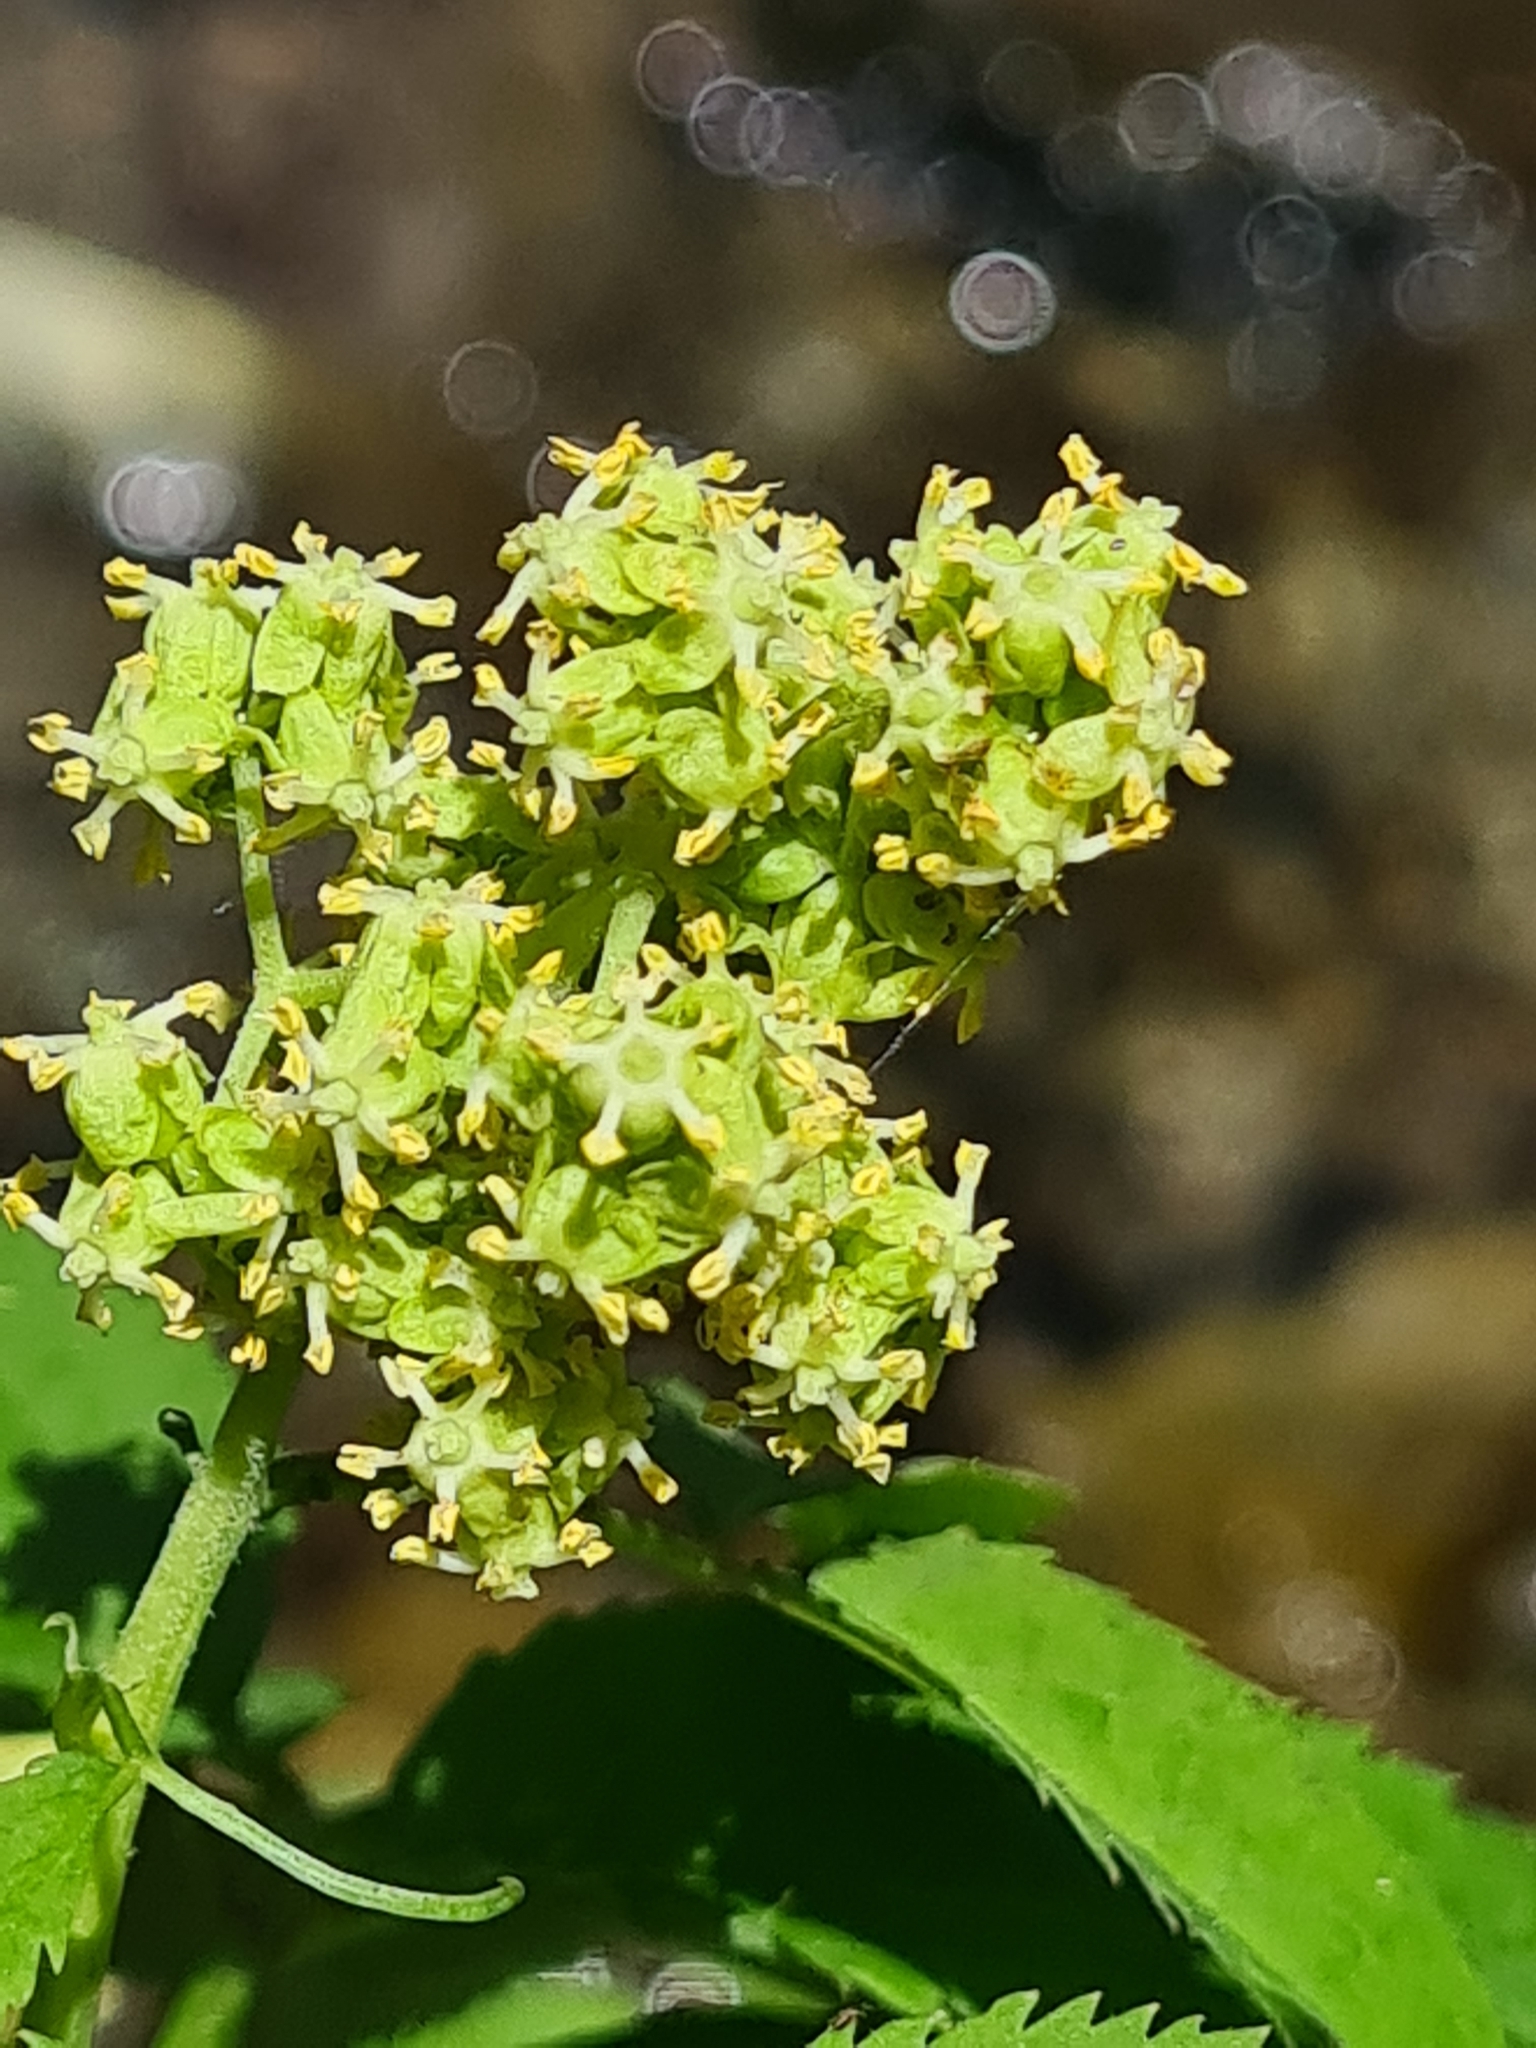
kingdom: Plantae
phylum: Tracheophyta
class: Magnoliopsida
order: Dipsacales
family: Viburnaceae
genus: Sambucus
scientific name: Sambucus racemosa
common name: Red-berried elder
